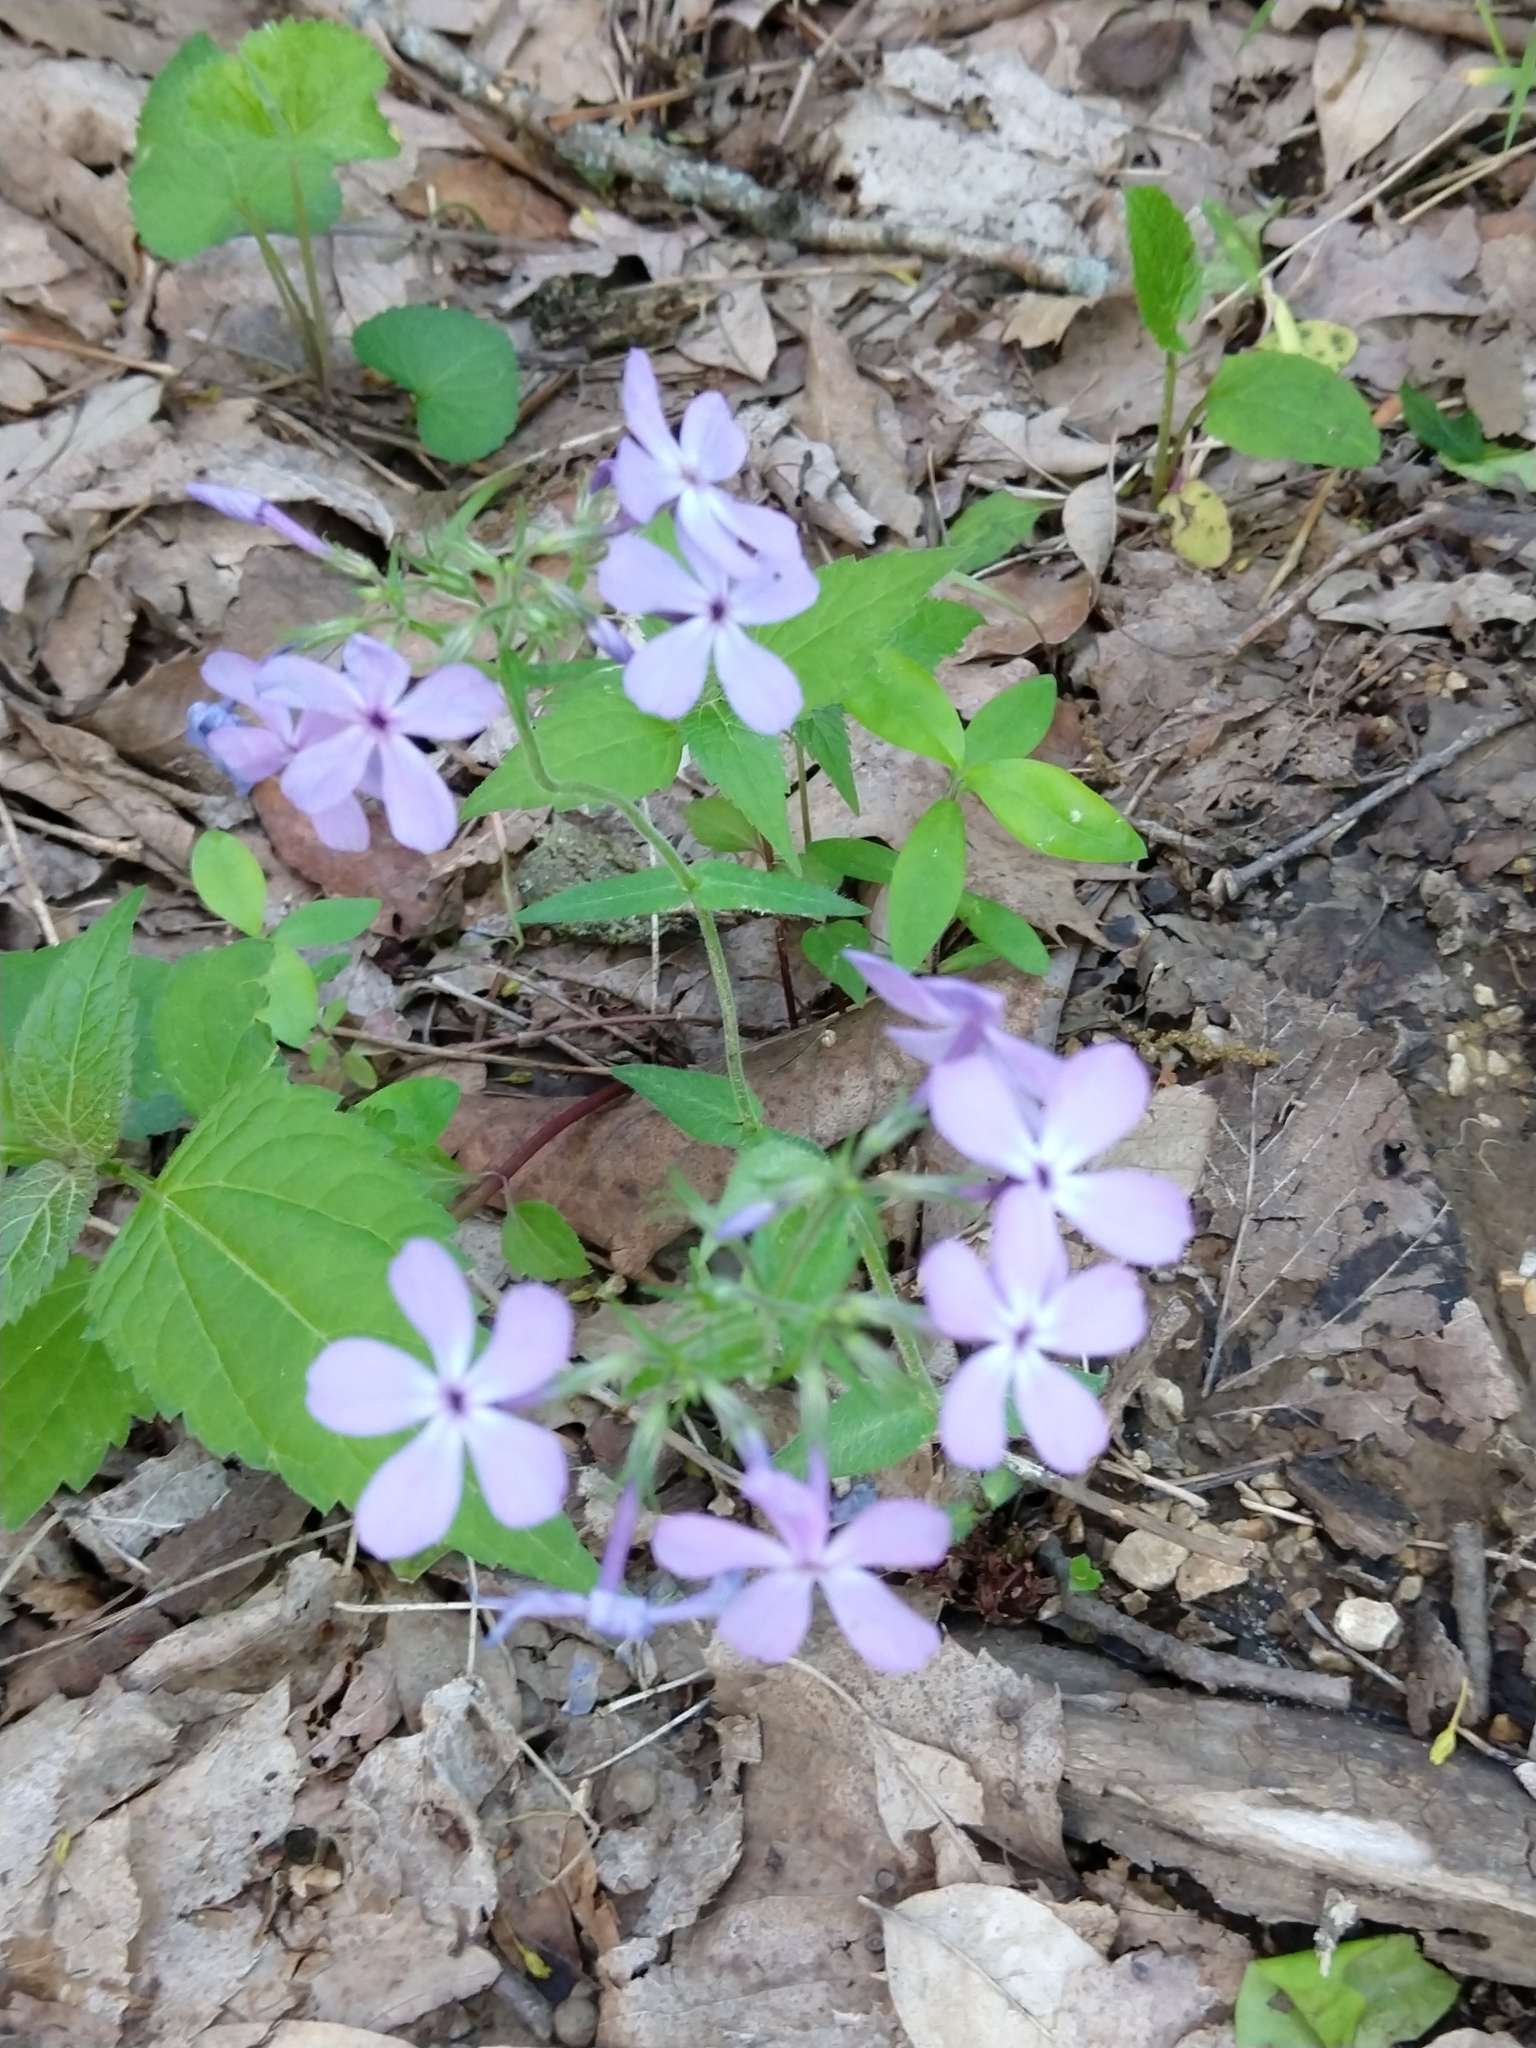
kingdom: Plantae
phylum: Tracheophyta
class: Magnoliopsida
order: Ericales
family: Polemoniaceae
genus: Phlox
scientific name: Phlox divaricata
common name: Blue phlox
